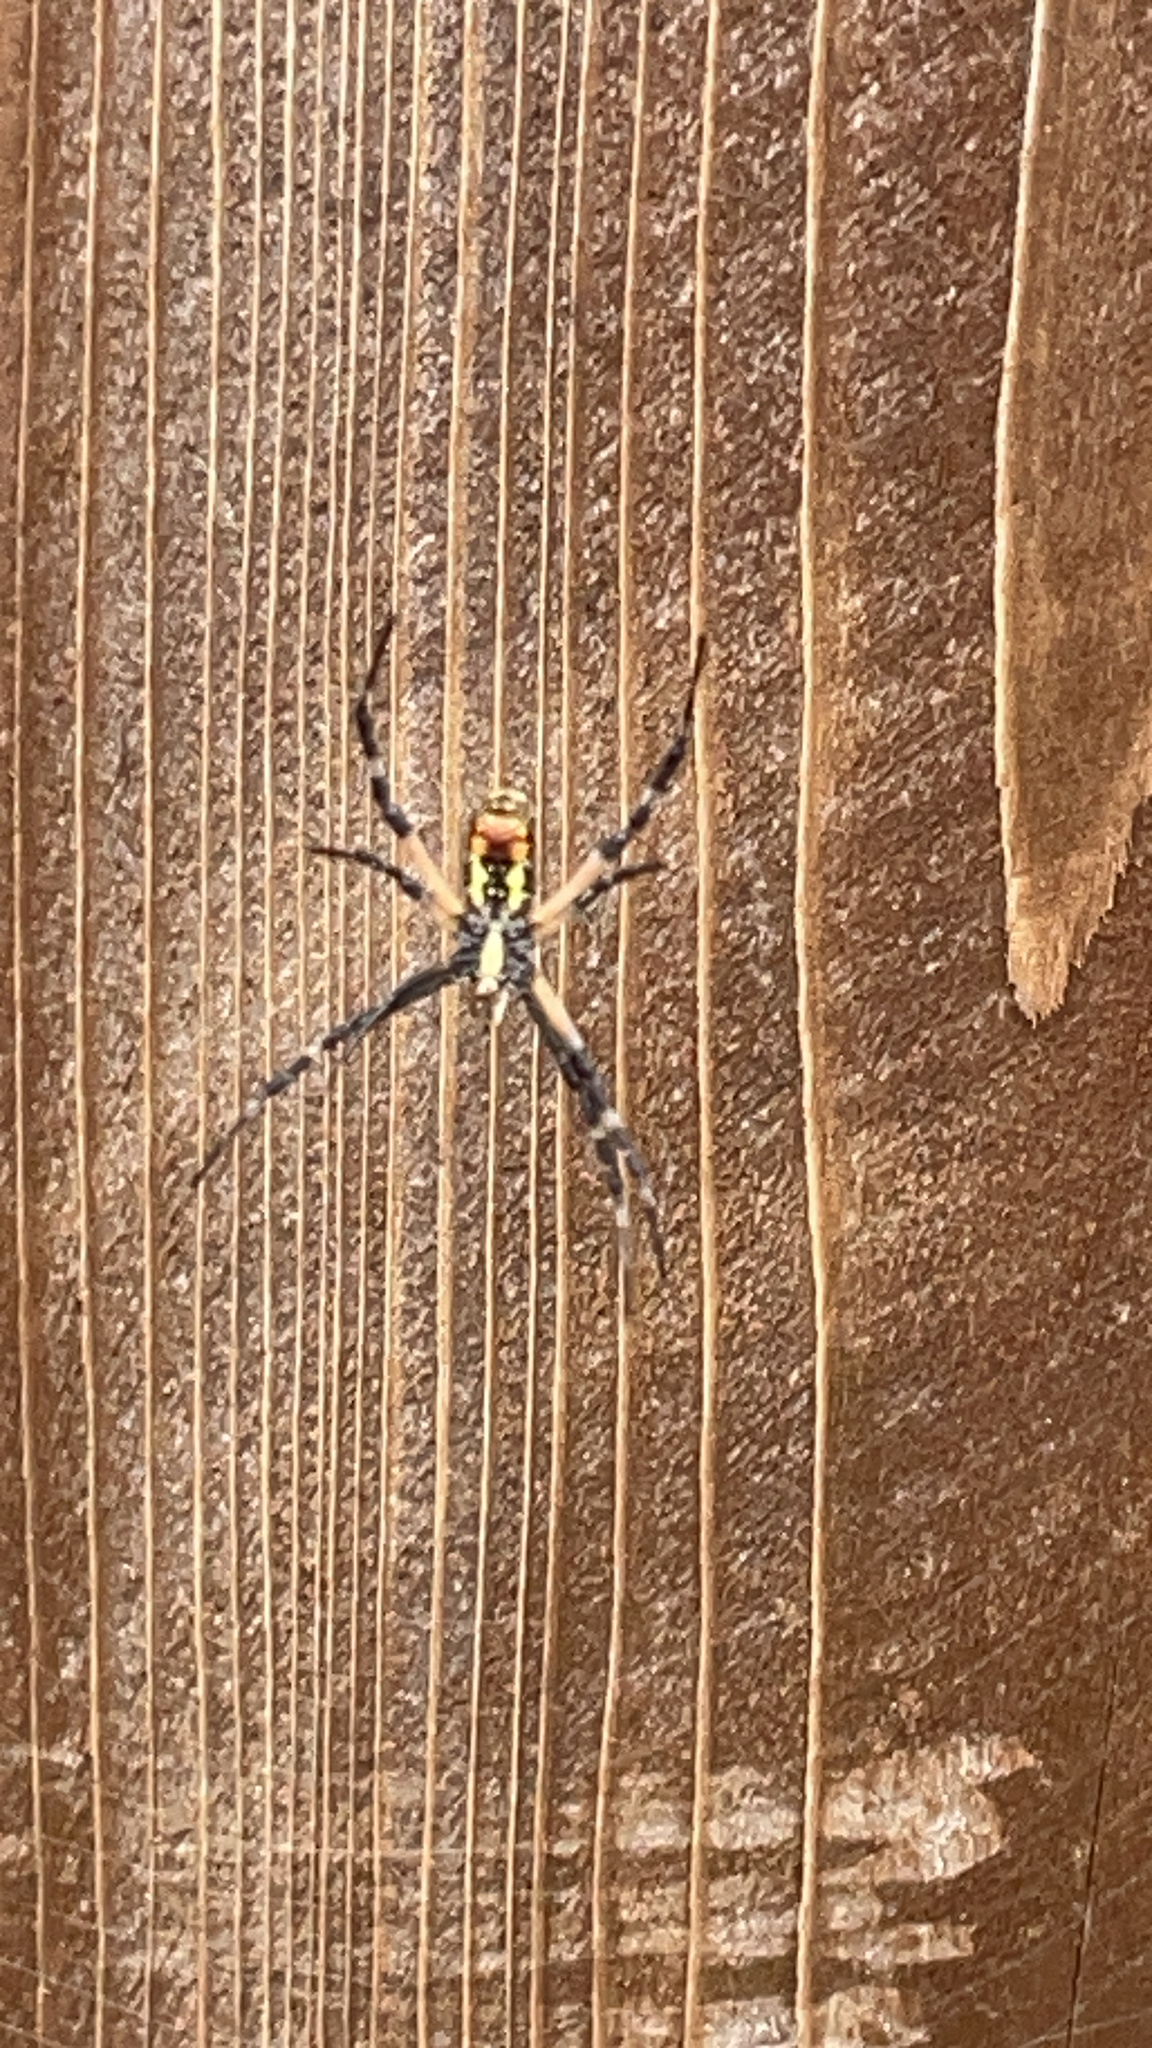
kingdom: Animalia
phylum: Arthropoda
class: Arachnida
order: Araneae
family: Araneidae
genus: Argiope
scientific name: Argiope aurantia
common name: Orb weavers
